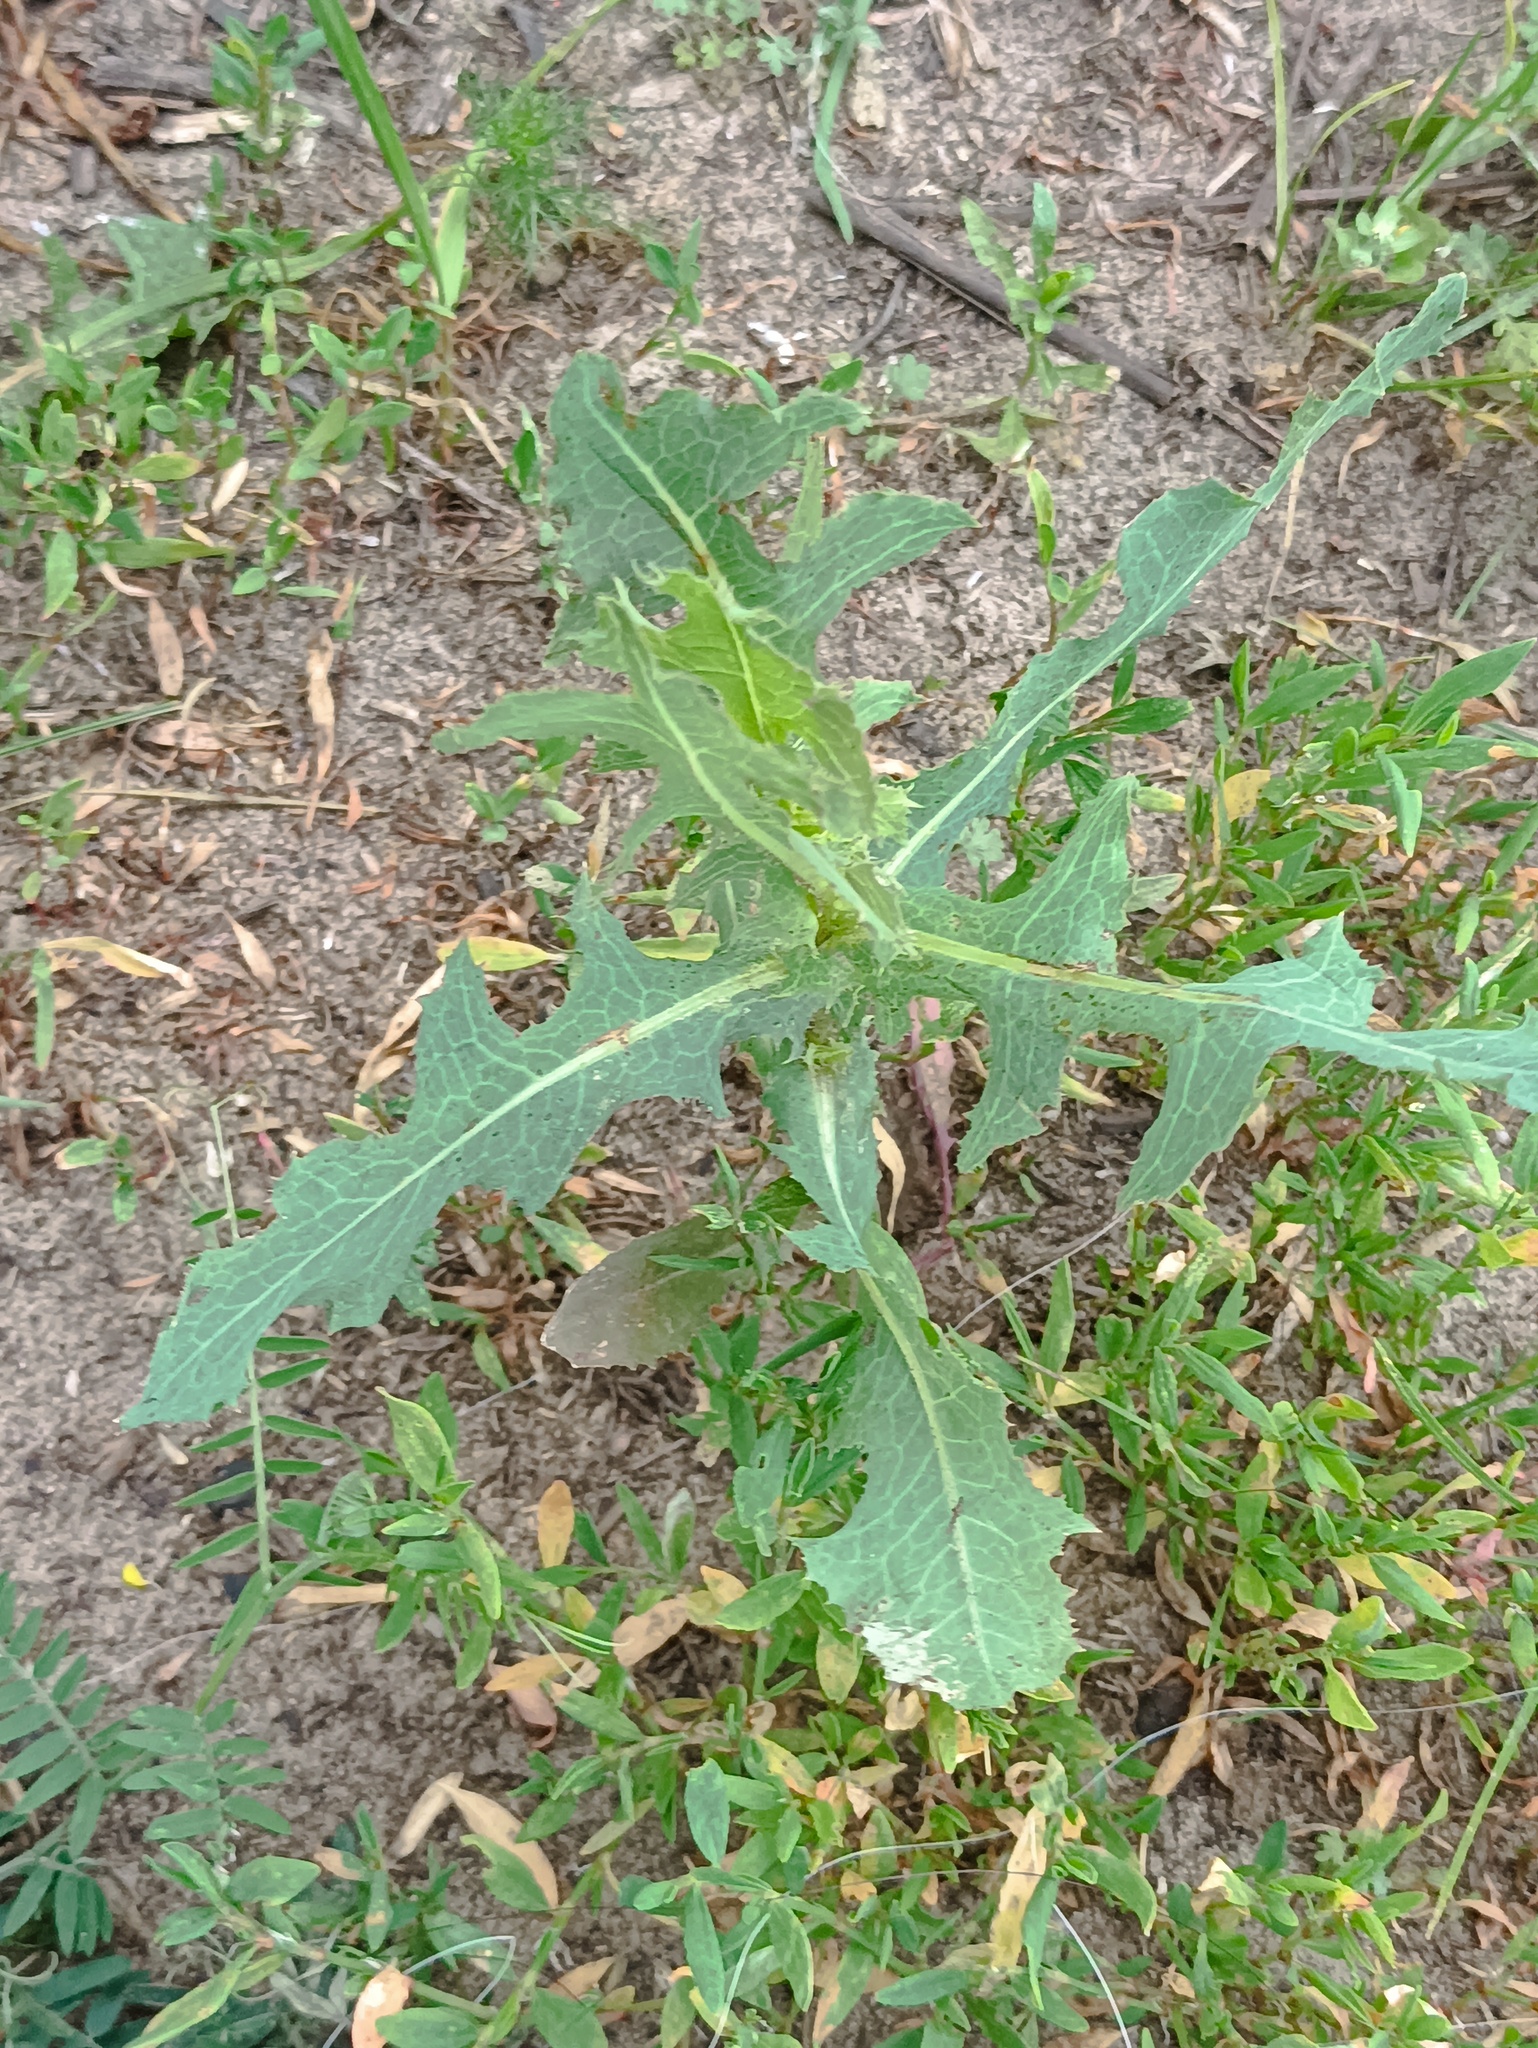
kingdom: Plantae
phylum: Tracheophyta
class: Magnoliopsida
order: Asterales
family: Asteraceae
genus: Lactuca
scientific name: Lactuca serriola
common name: Prickly lettuce
